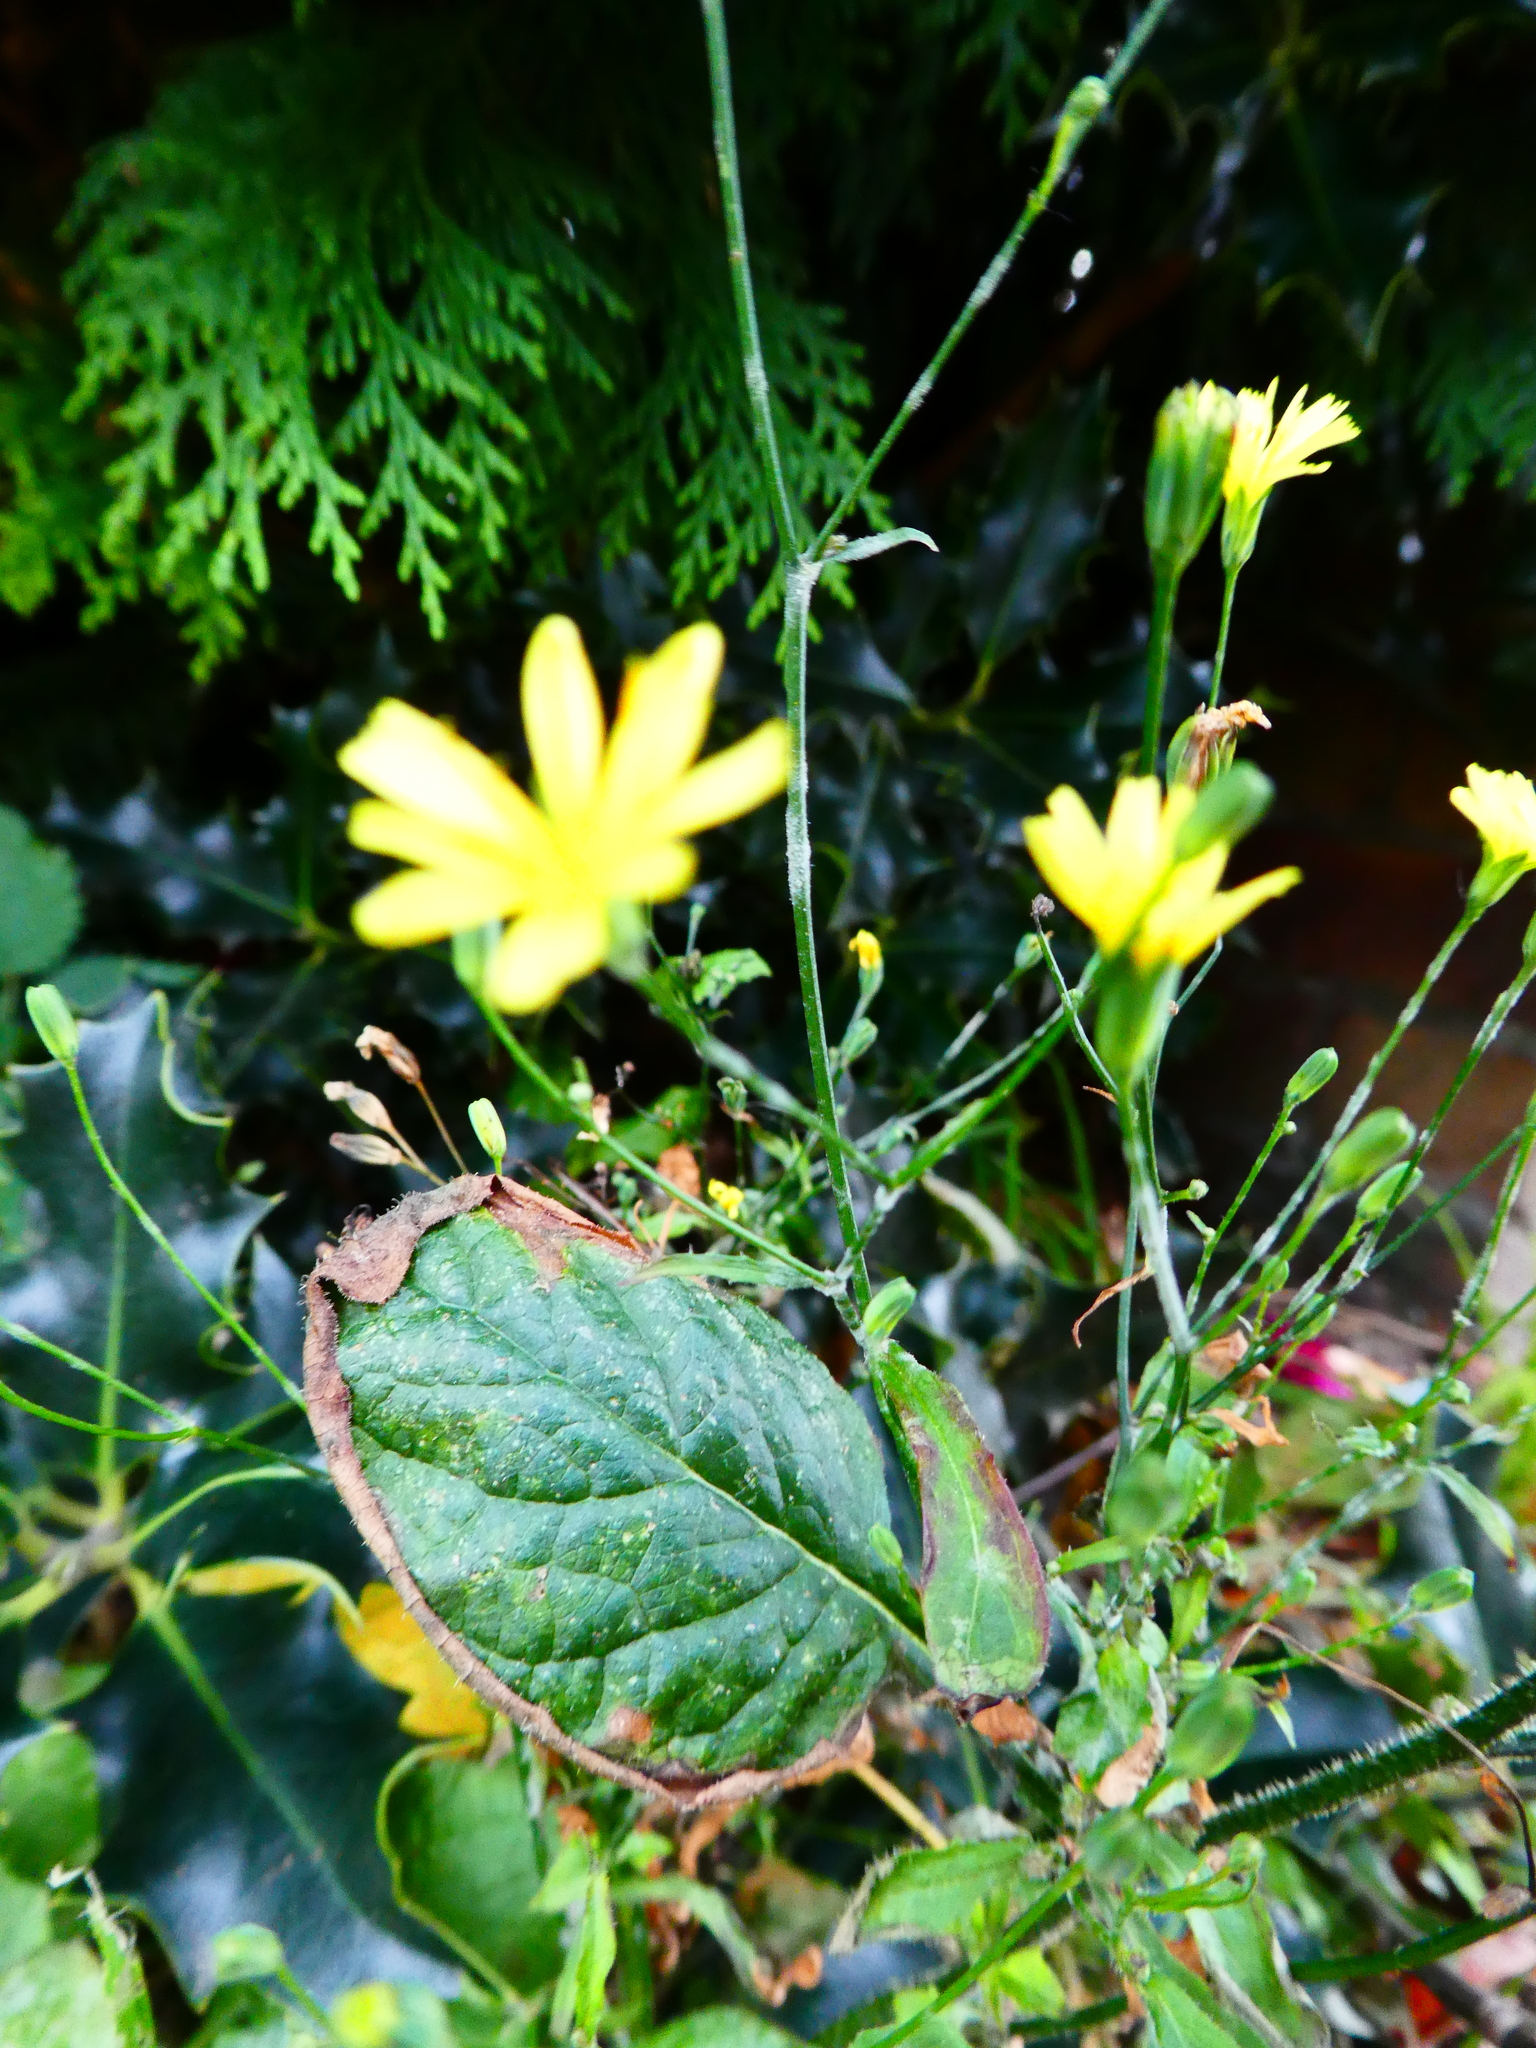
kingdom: Plantae
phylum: Tracheophyta
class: Magnoliopsida
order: Asterales
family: Asteraceae
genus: Lapsana
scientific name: Lapsana communis
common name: Nipplewort
